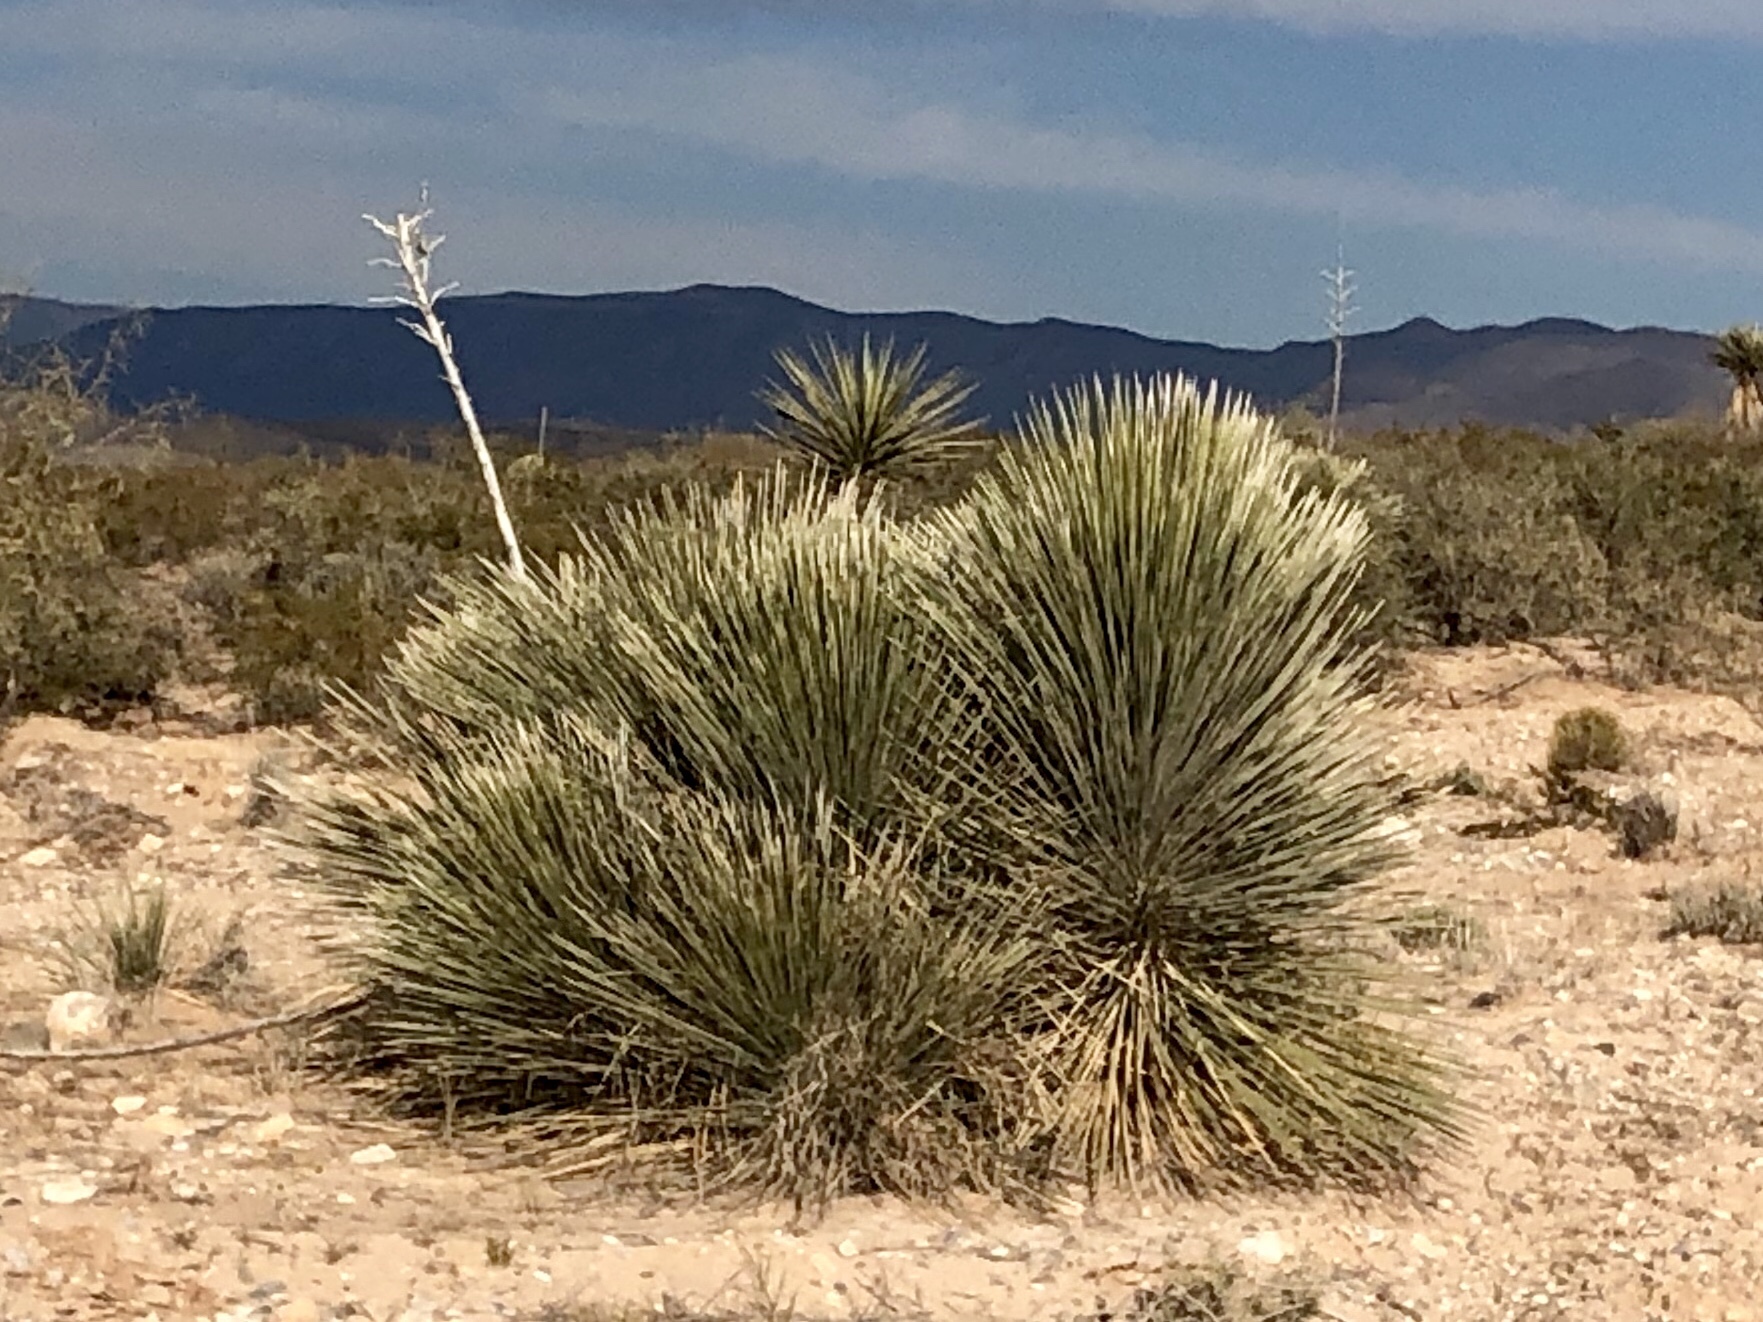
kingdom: Plantae
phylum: Tracheophyta
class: Liliopsida
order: Asparagales
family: Asparagaceae
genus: Yucca
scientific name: Yucca elata
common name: Palmella
